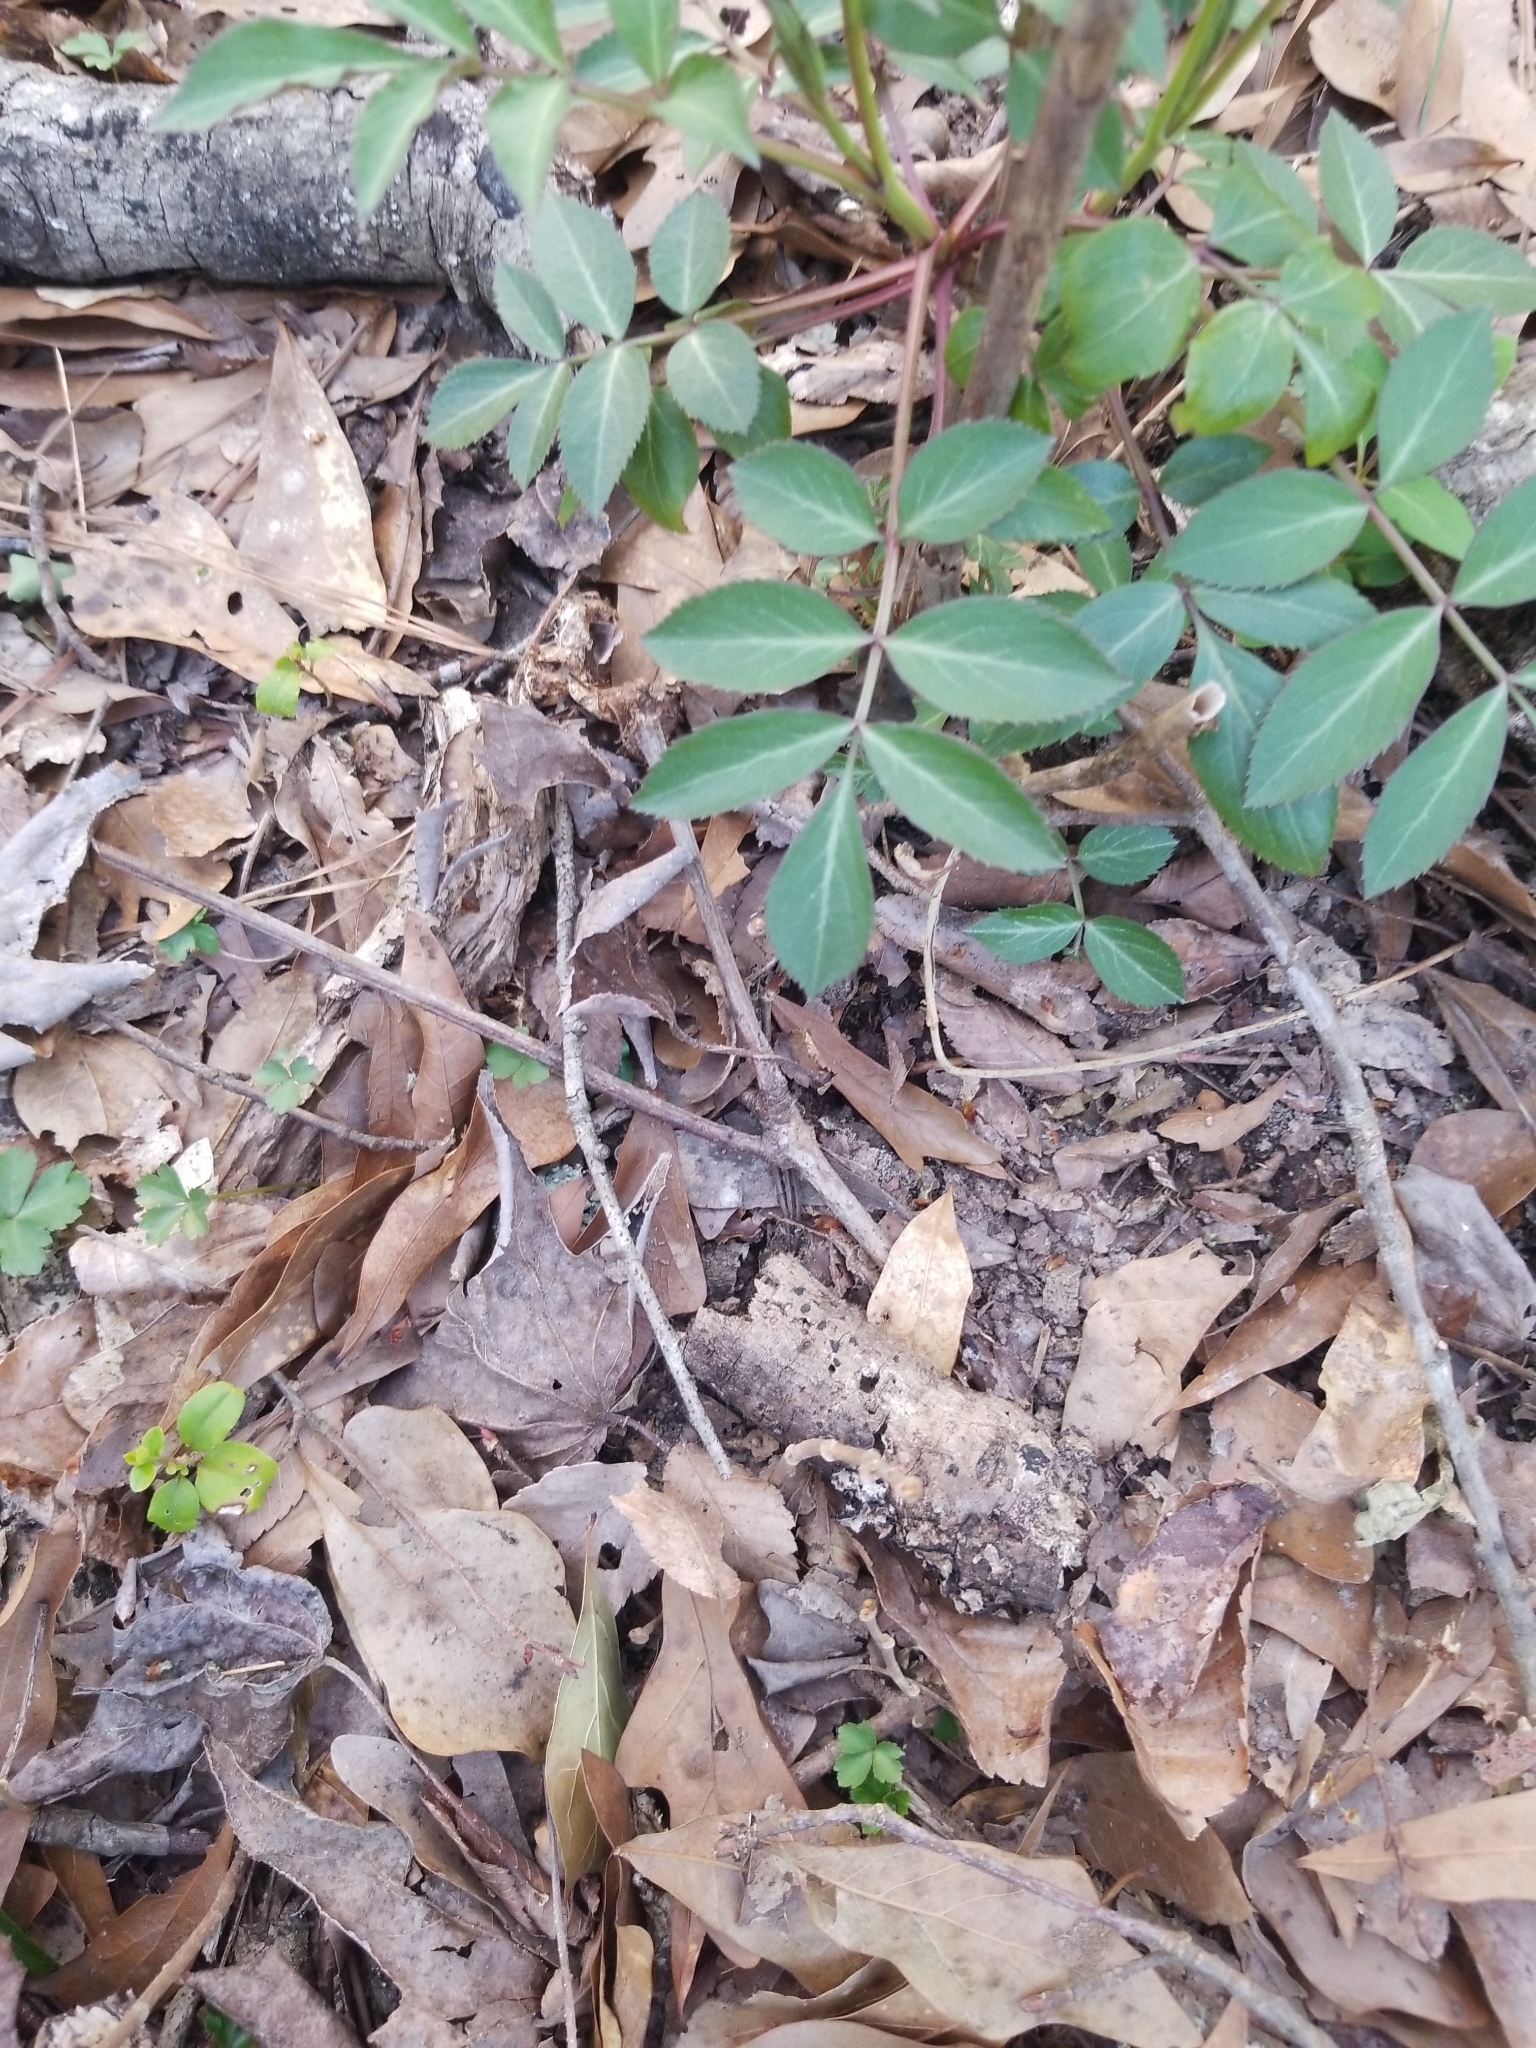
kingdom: Plantae
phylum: Tracheophyta
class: Magnoliopsida
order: Dipsacales
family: Viburnaceae
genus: Sambucus
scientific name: Sambucus canadensis
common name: American elder
